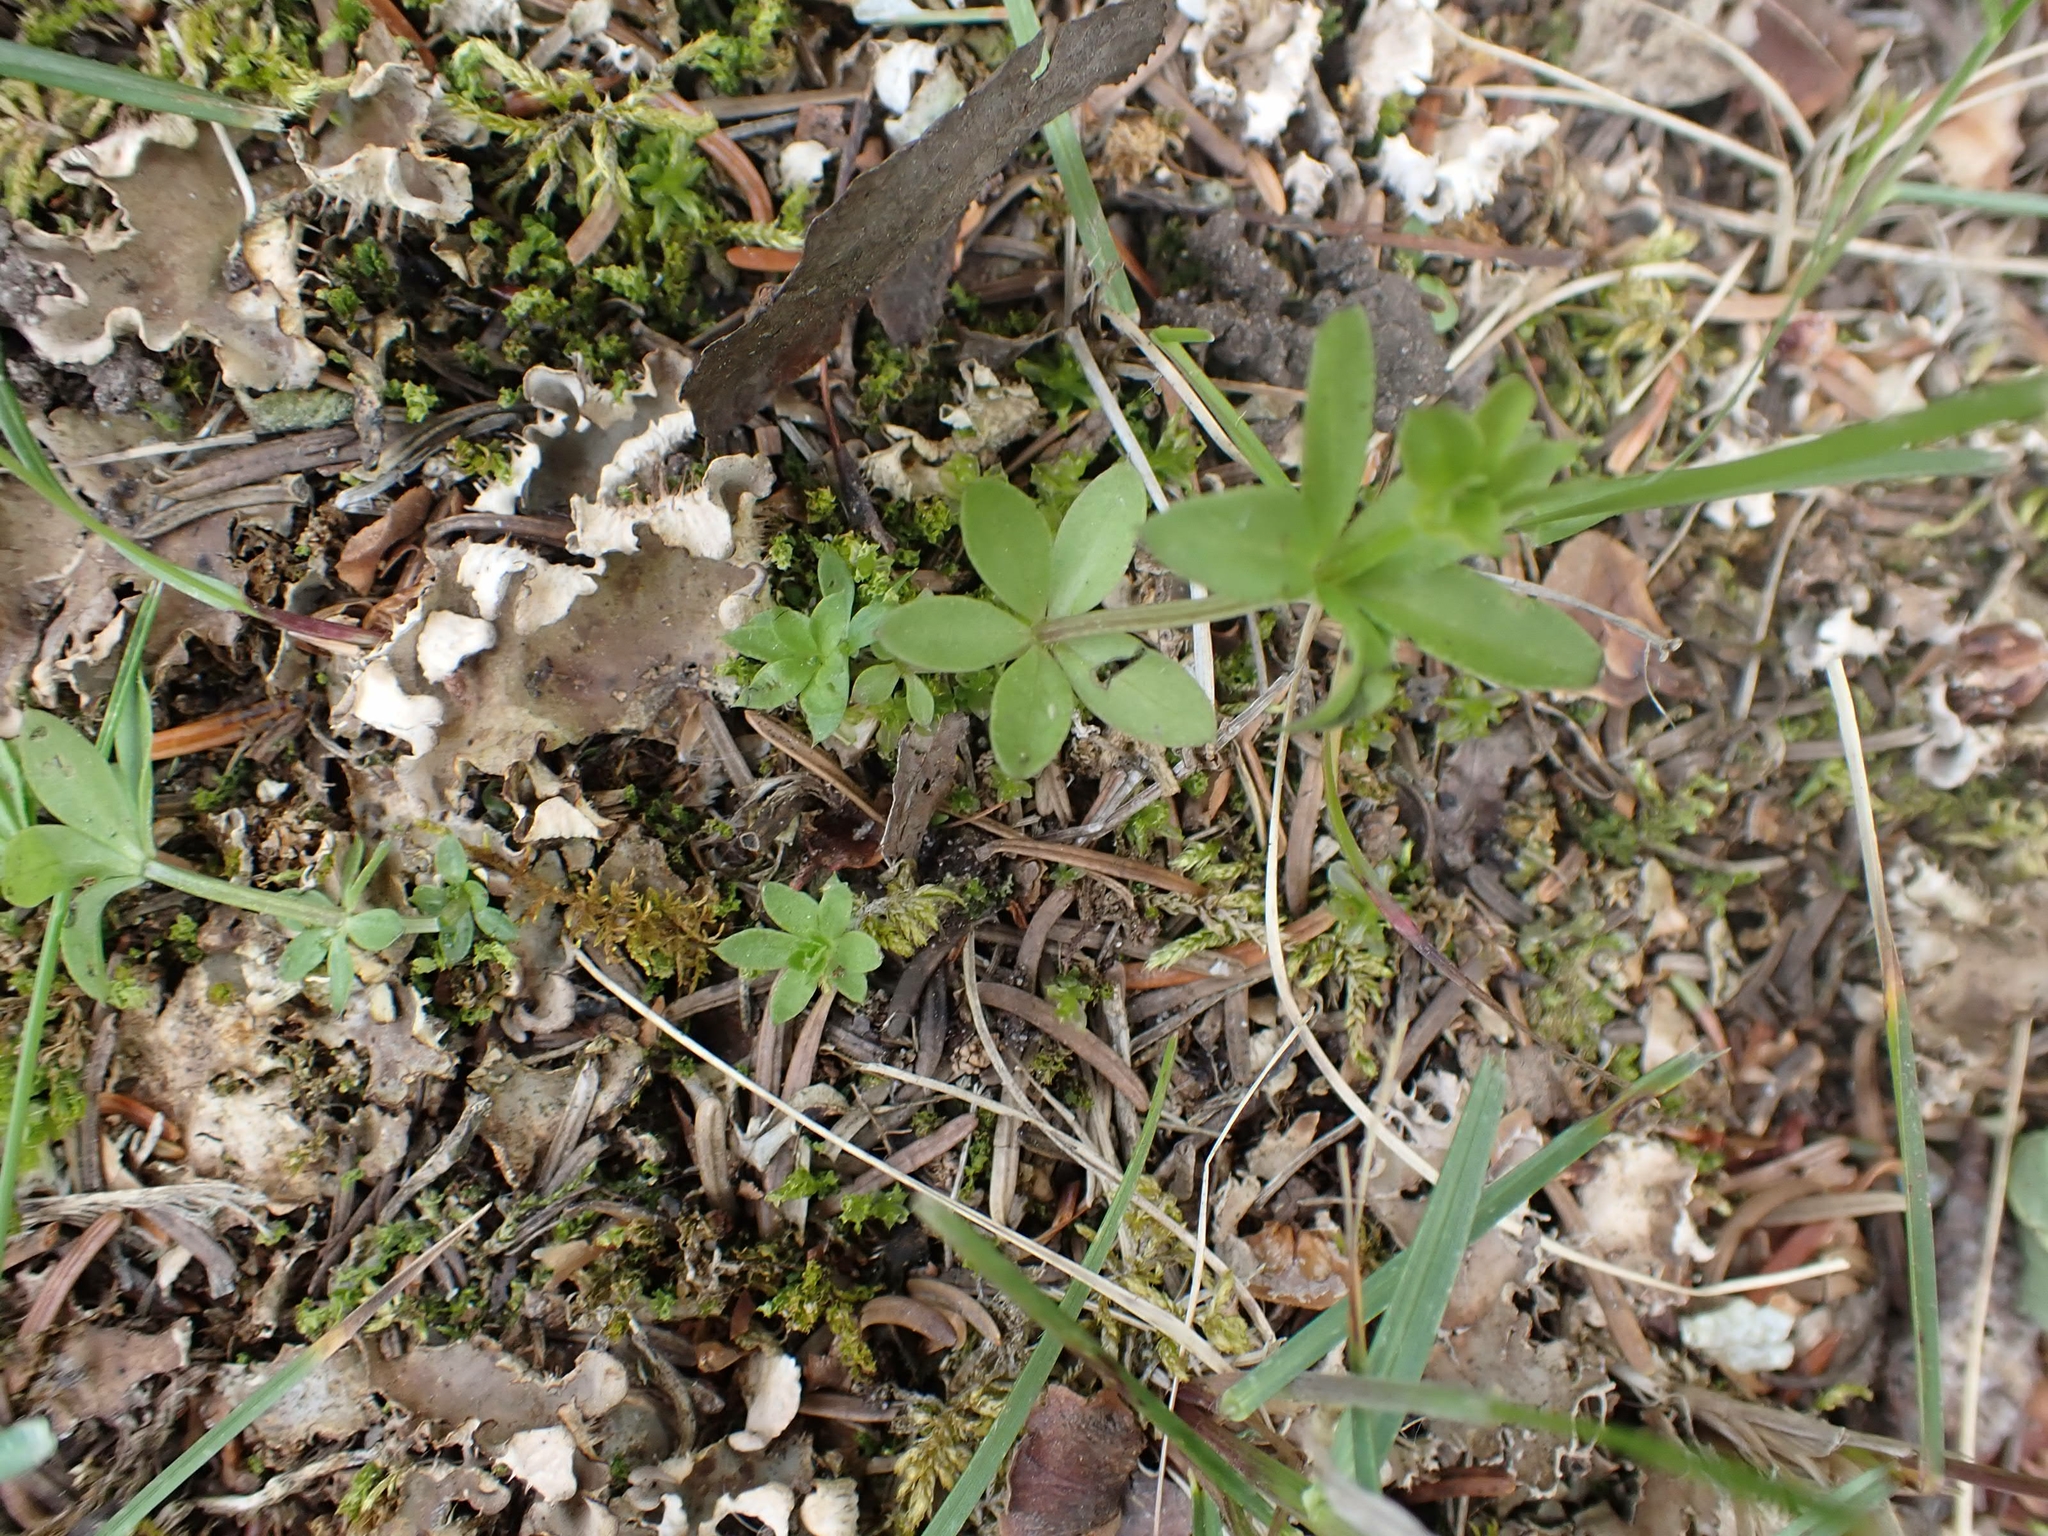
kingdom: Plantae
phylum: Tracheophyta
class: Magnoliopsida
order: Gentianales
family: Rubiaceae
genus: Galium
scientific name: Galium triflorum
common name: Fragrant bedstraw
